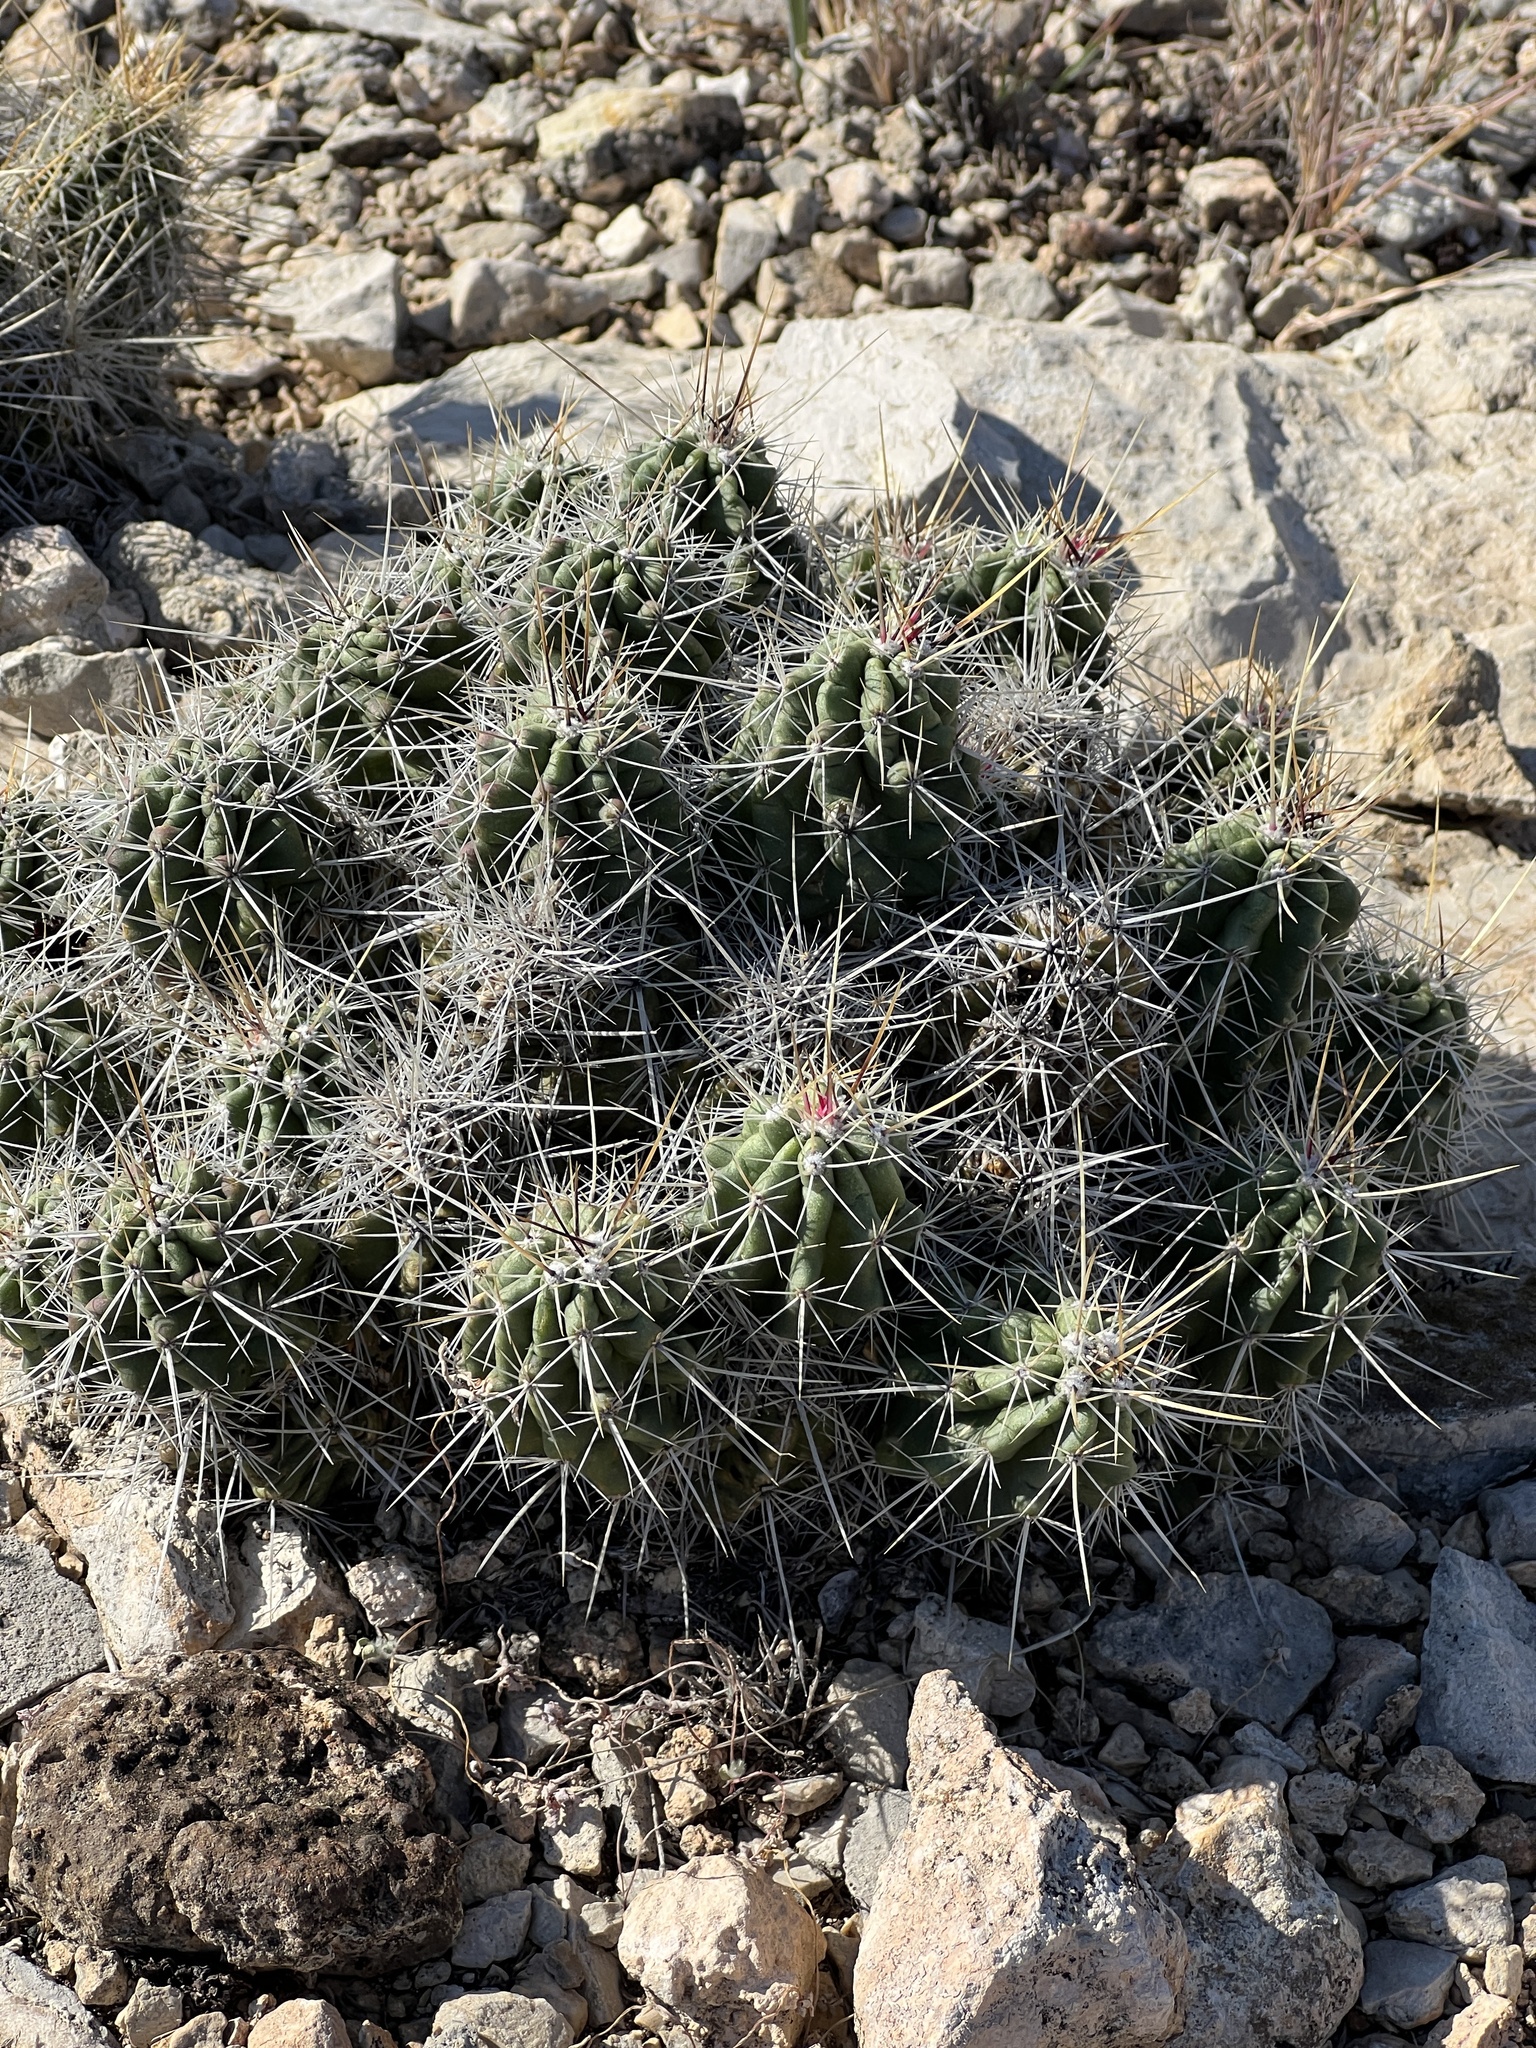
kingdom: Plantae
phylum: Tracheophyta
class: Magnoliopsida
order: Caryophyllales
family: Cactaceae
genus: Echinocereus
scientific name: Echinocereus enneacanthus
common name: Pitaya
